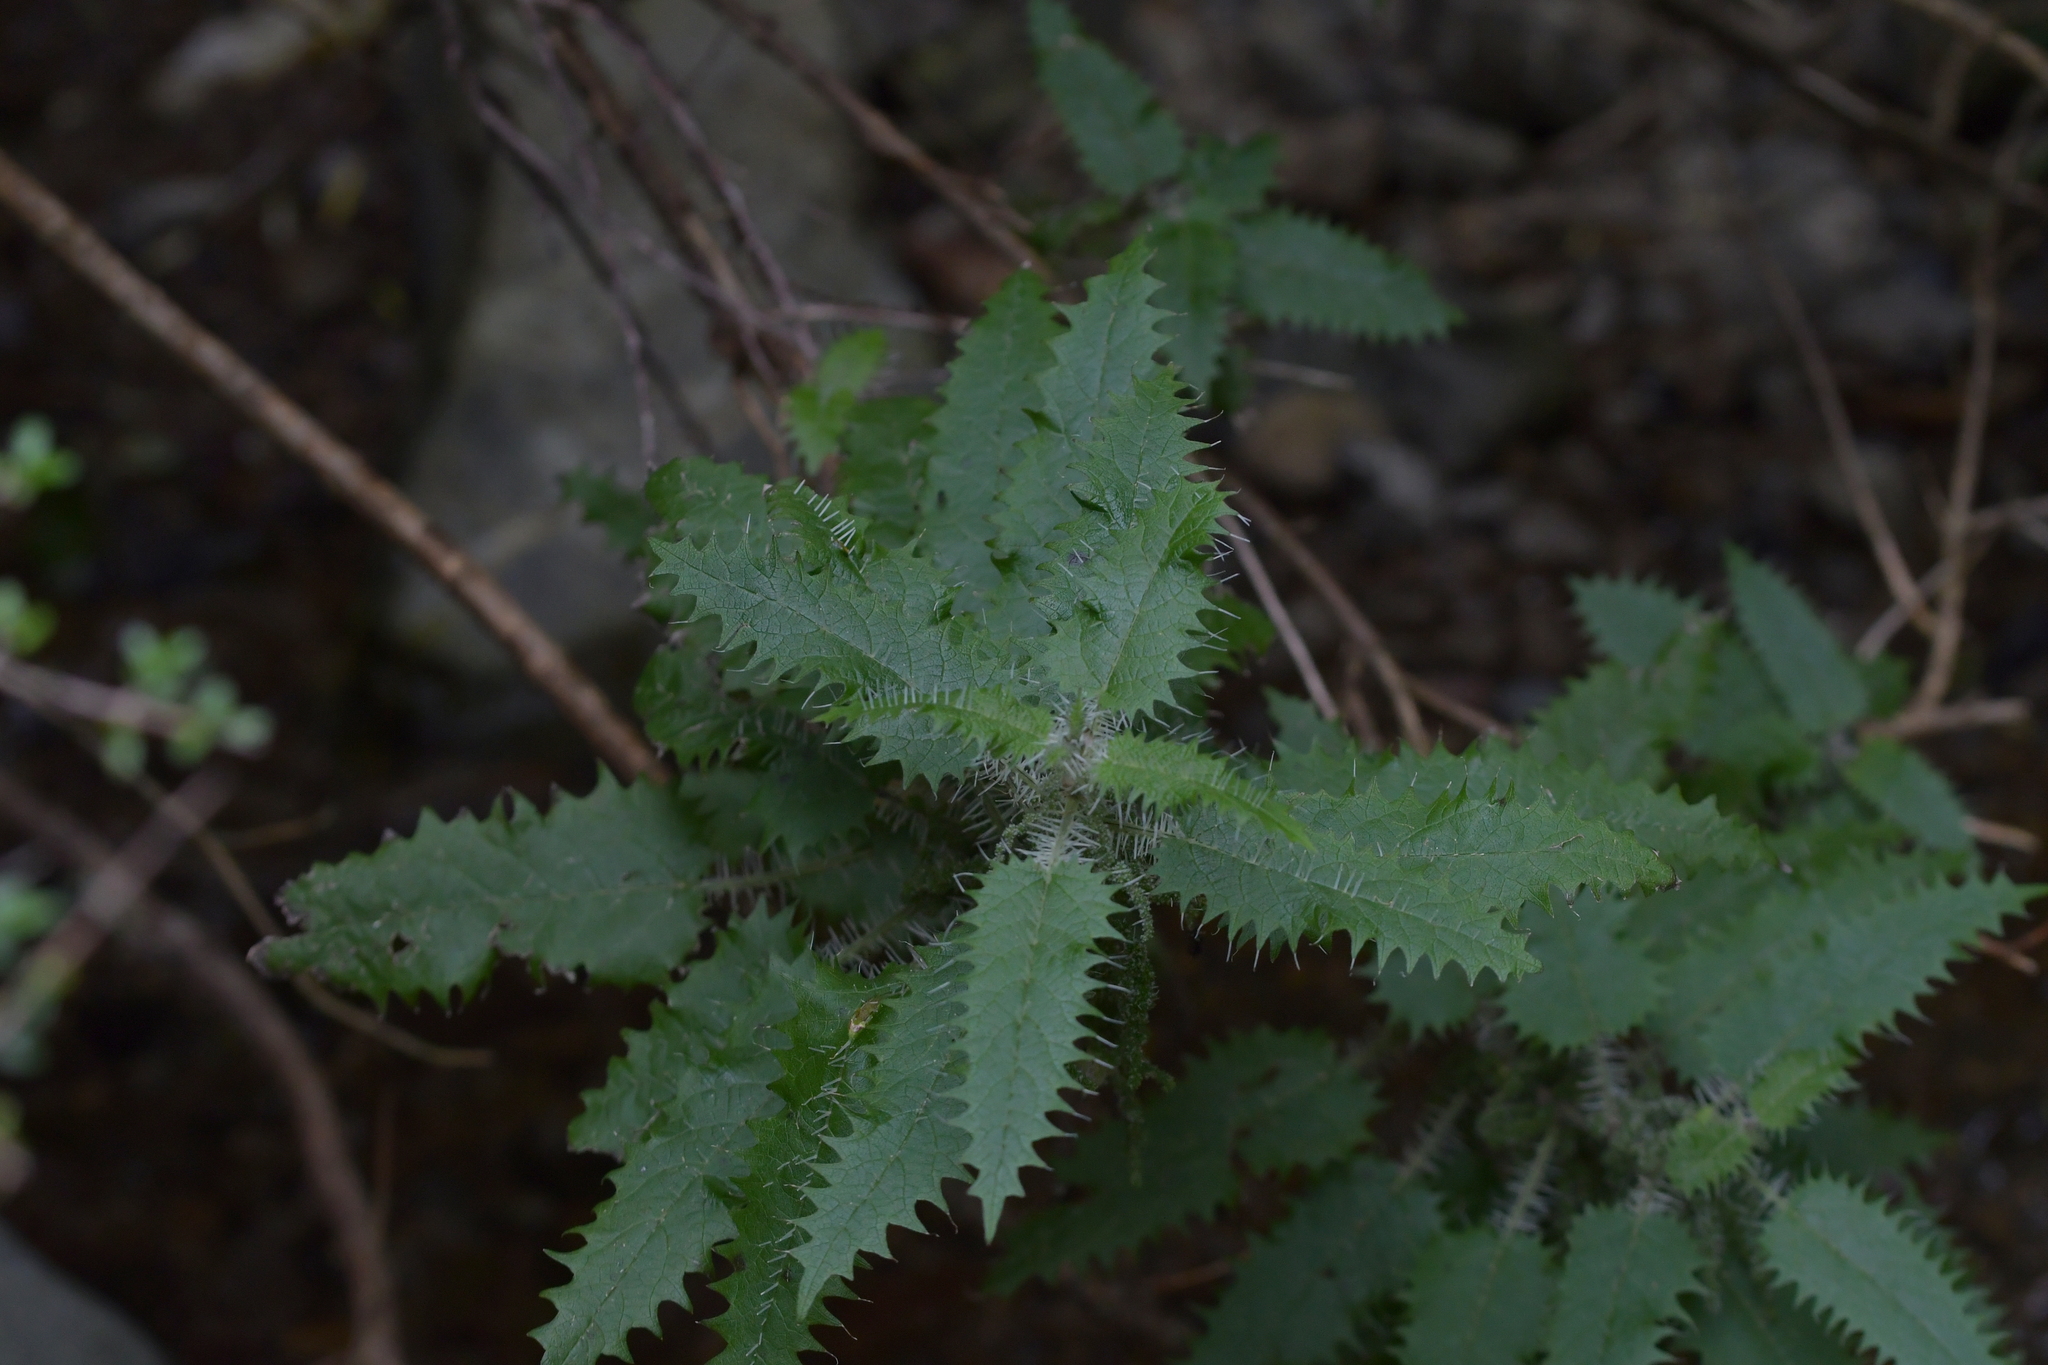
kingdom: Plantae
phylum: Tracheophyta
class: Magnoliopsida
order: Rosales
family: Urticaceae
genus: Urtica
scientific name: Urtica ferox
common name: Tree nettle
